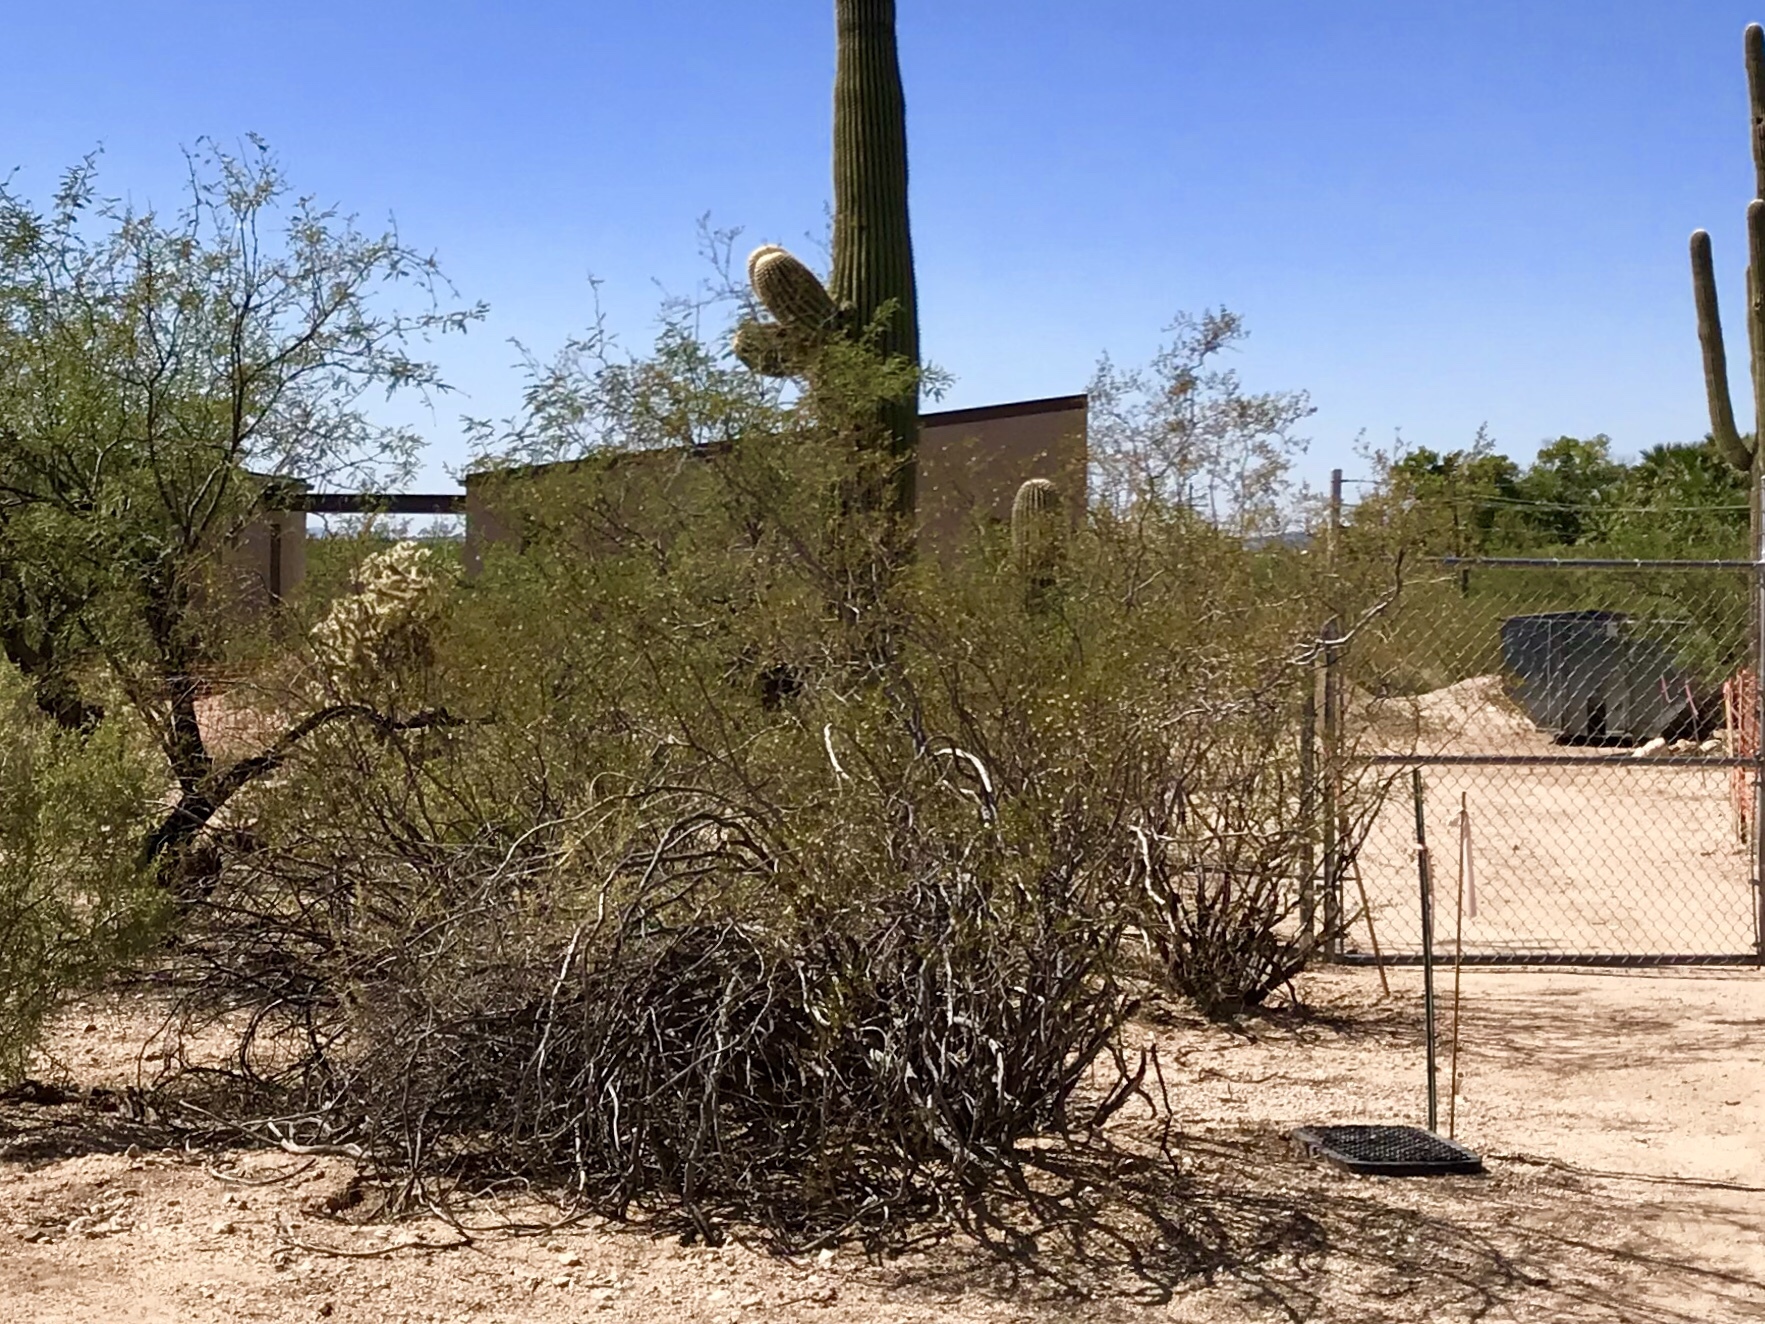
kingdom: Plantae
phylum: Tracheophyta
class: Magnoliopsida
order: Zygophyllales
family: Zygophyllaceae
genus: Larrea
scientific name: Larrea tridentata
